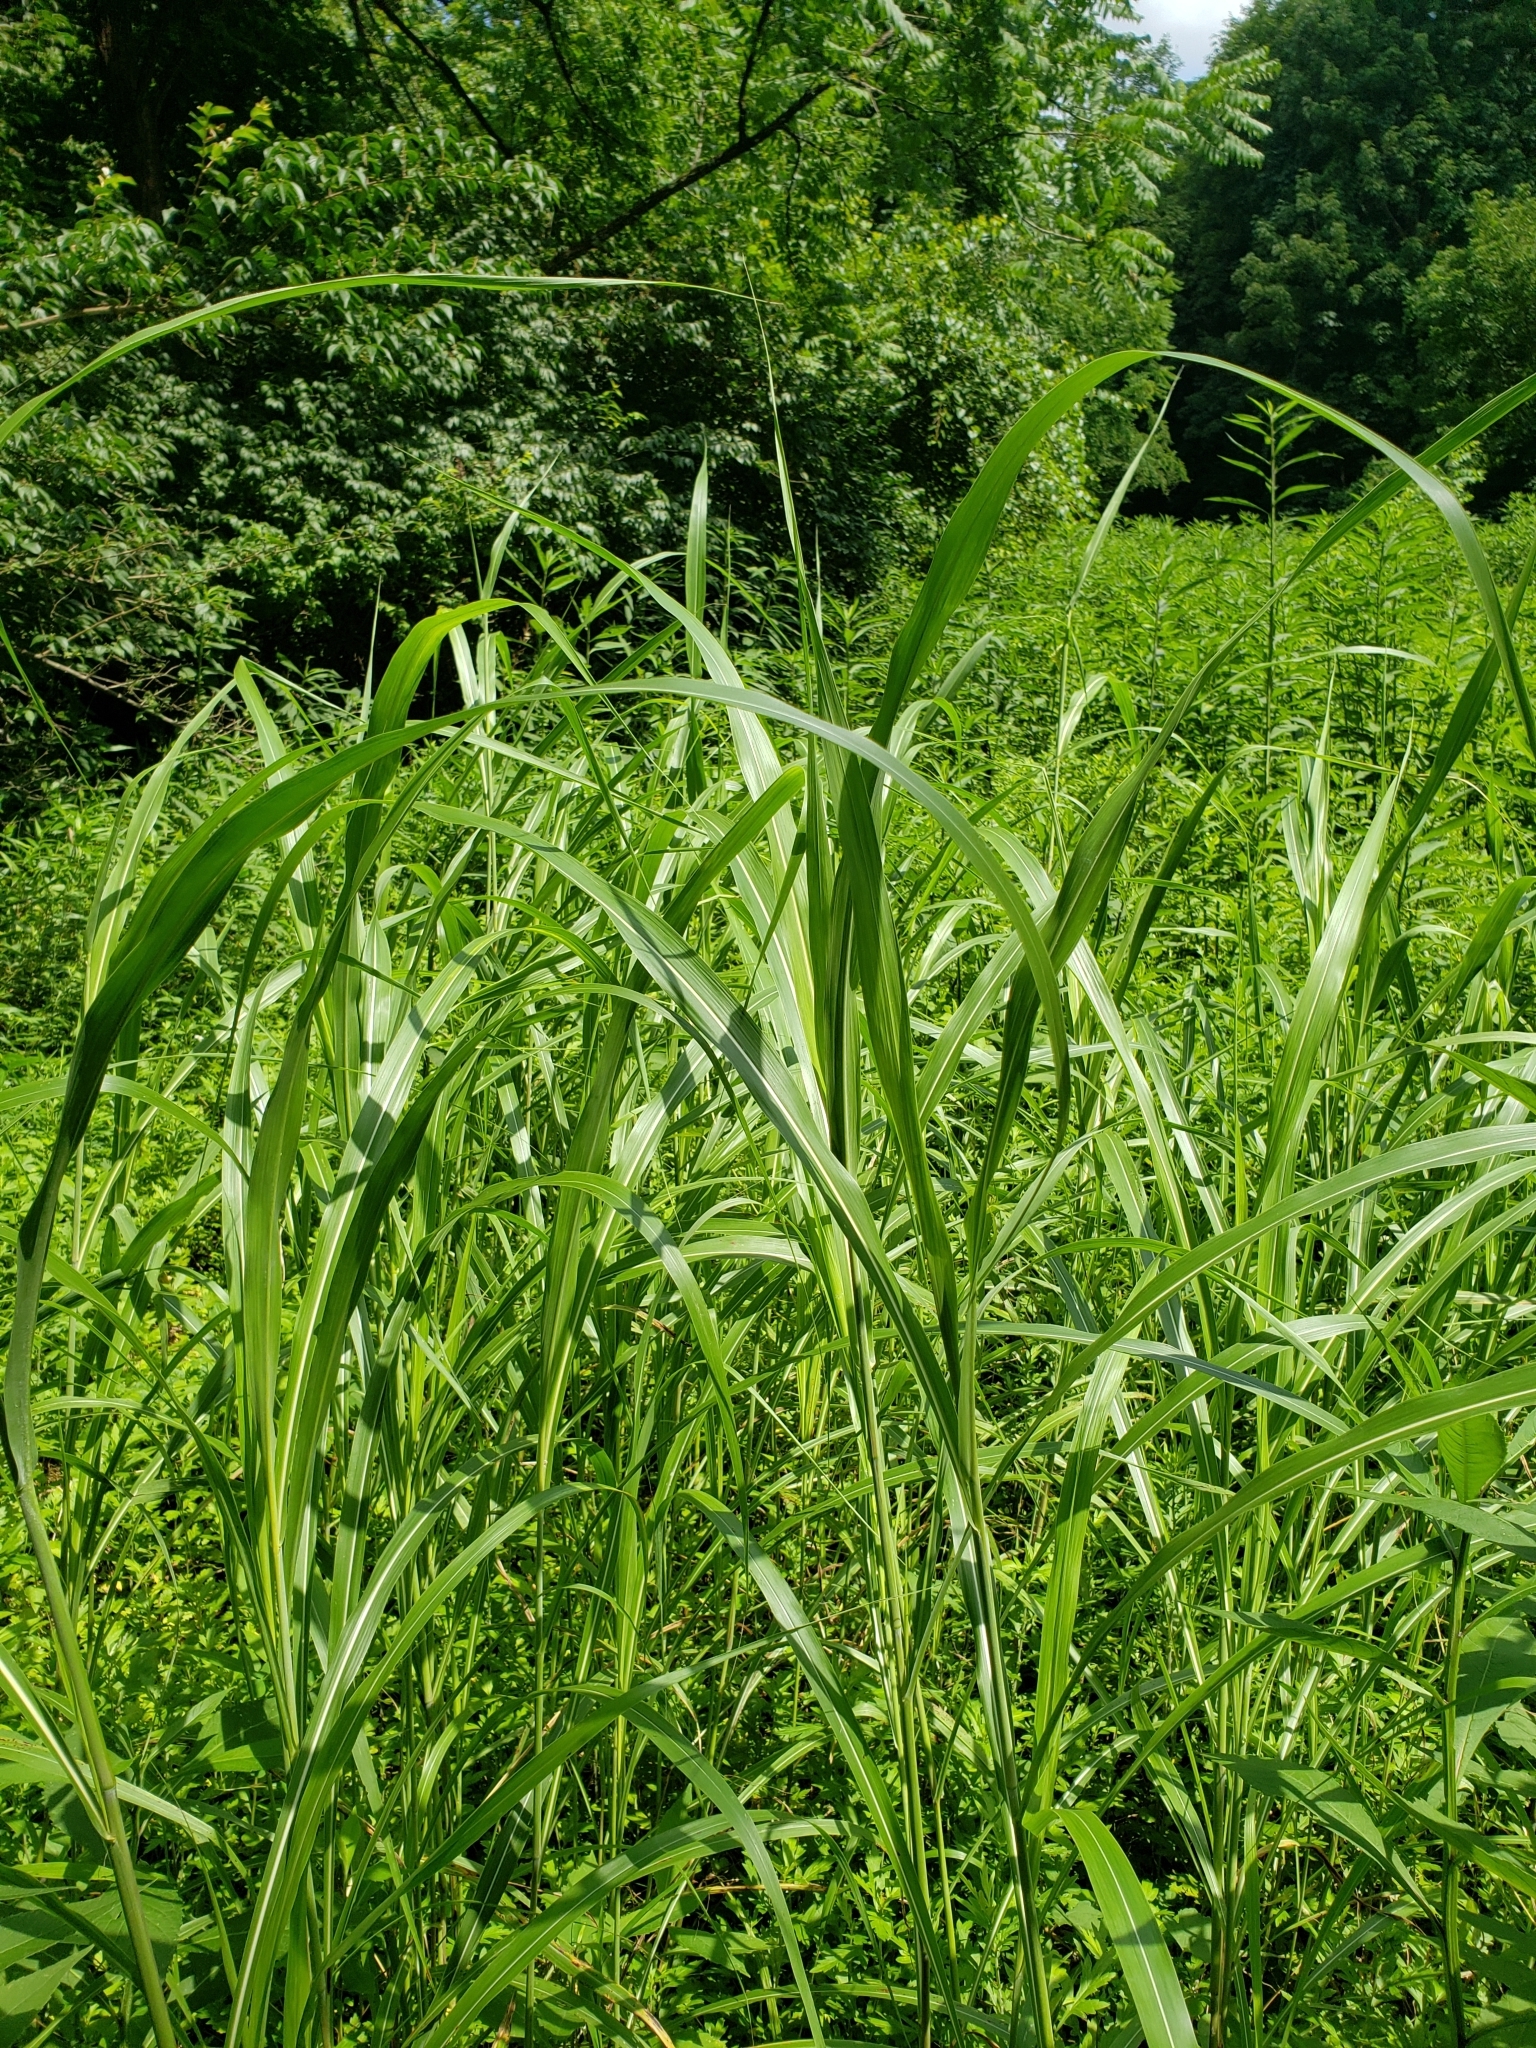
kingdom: Plantae
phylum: Tracheophyta
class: Liliopsida
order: Poales
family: Poaceae
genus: Sorghum
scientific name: Sorghum halepense
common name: Johnson-grass
